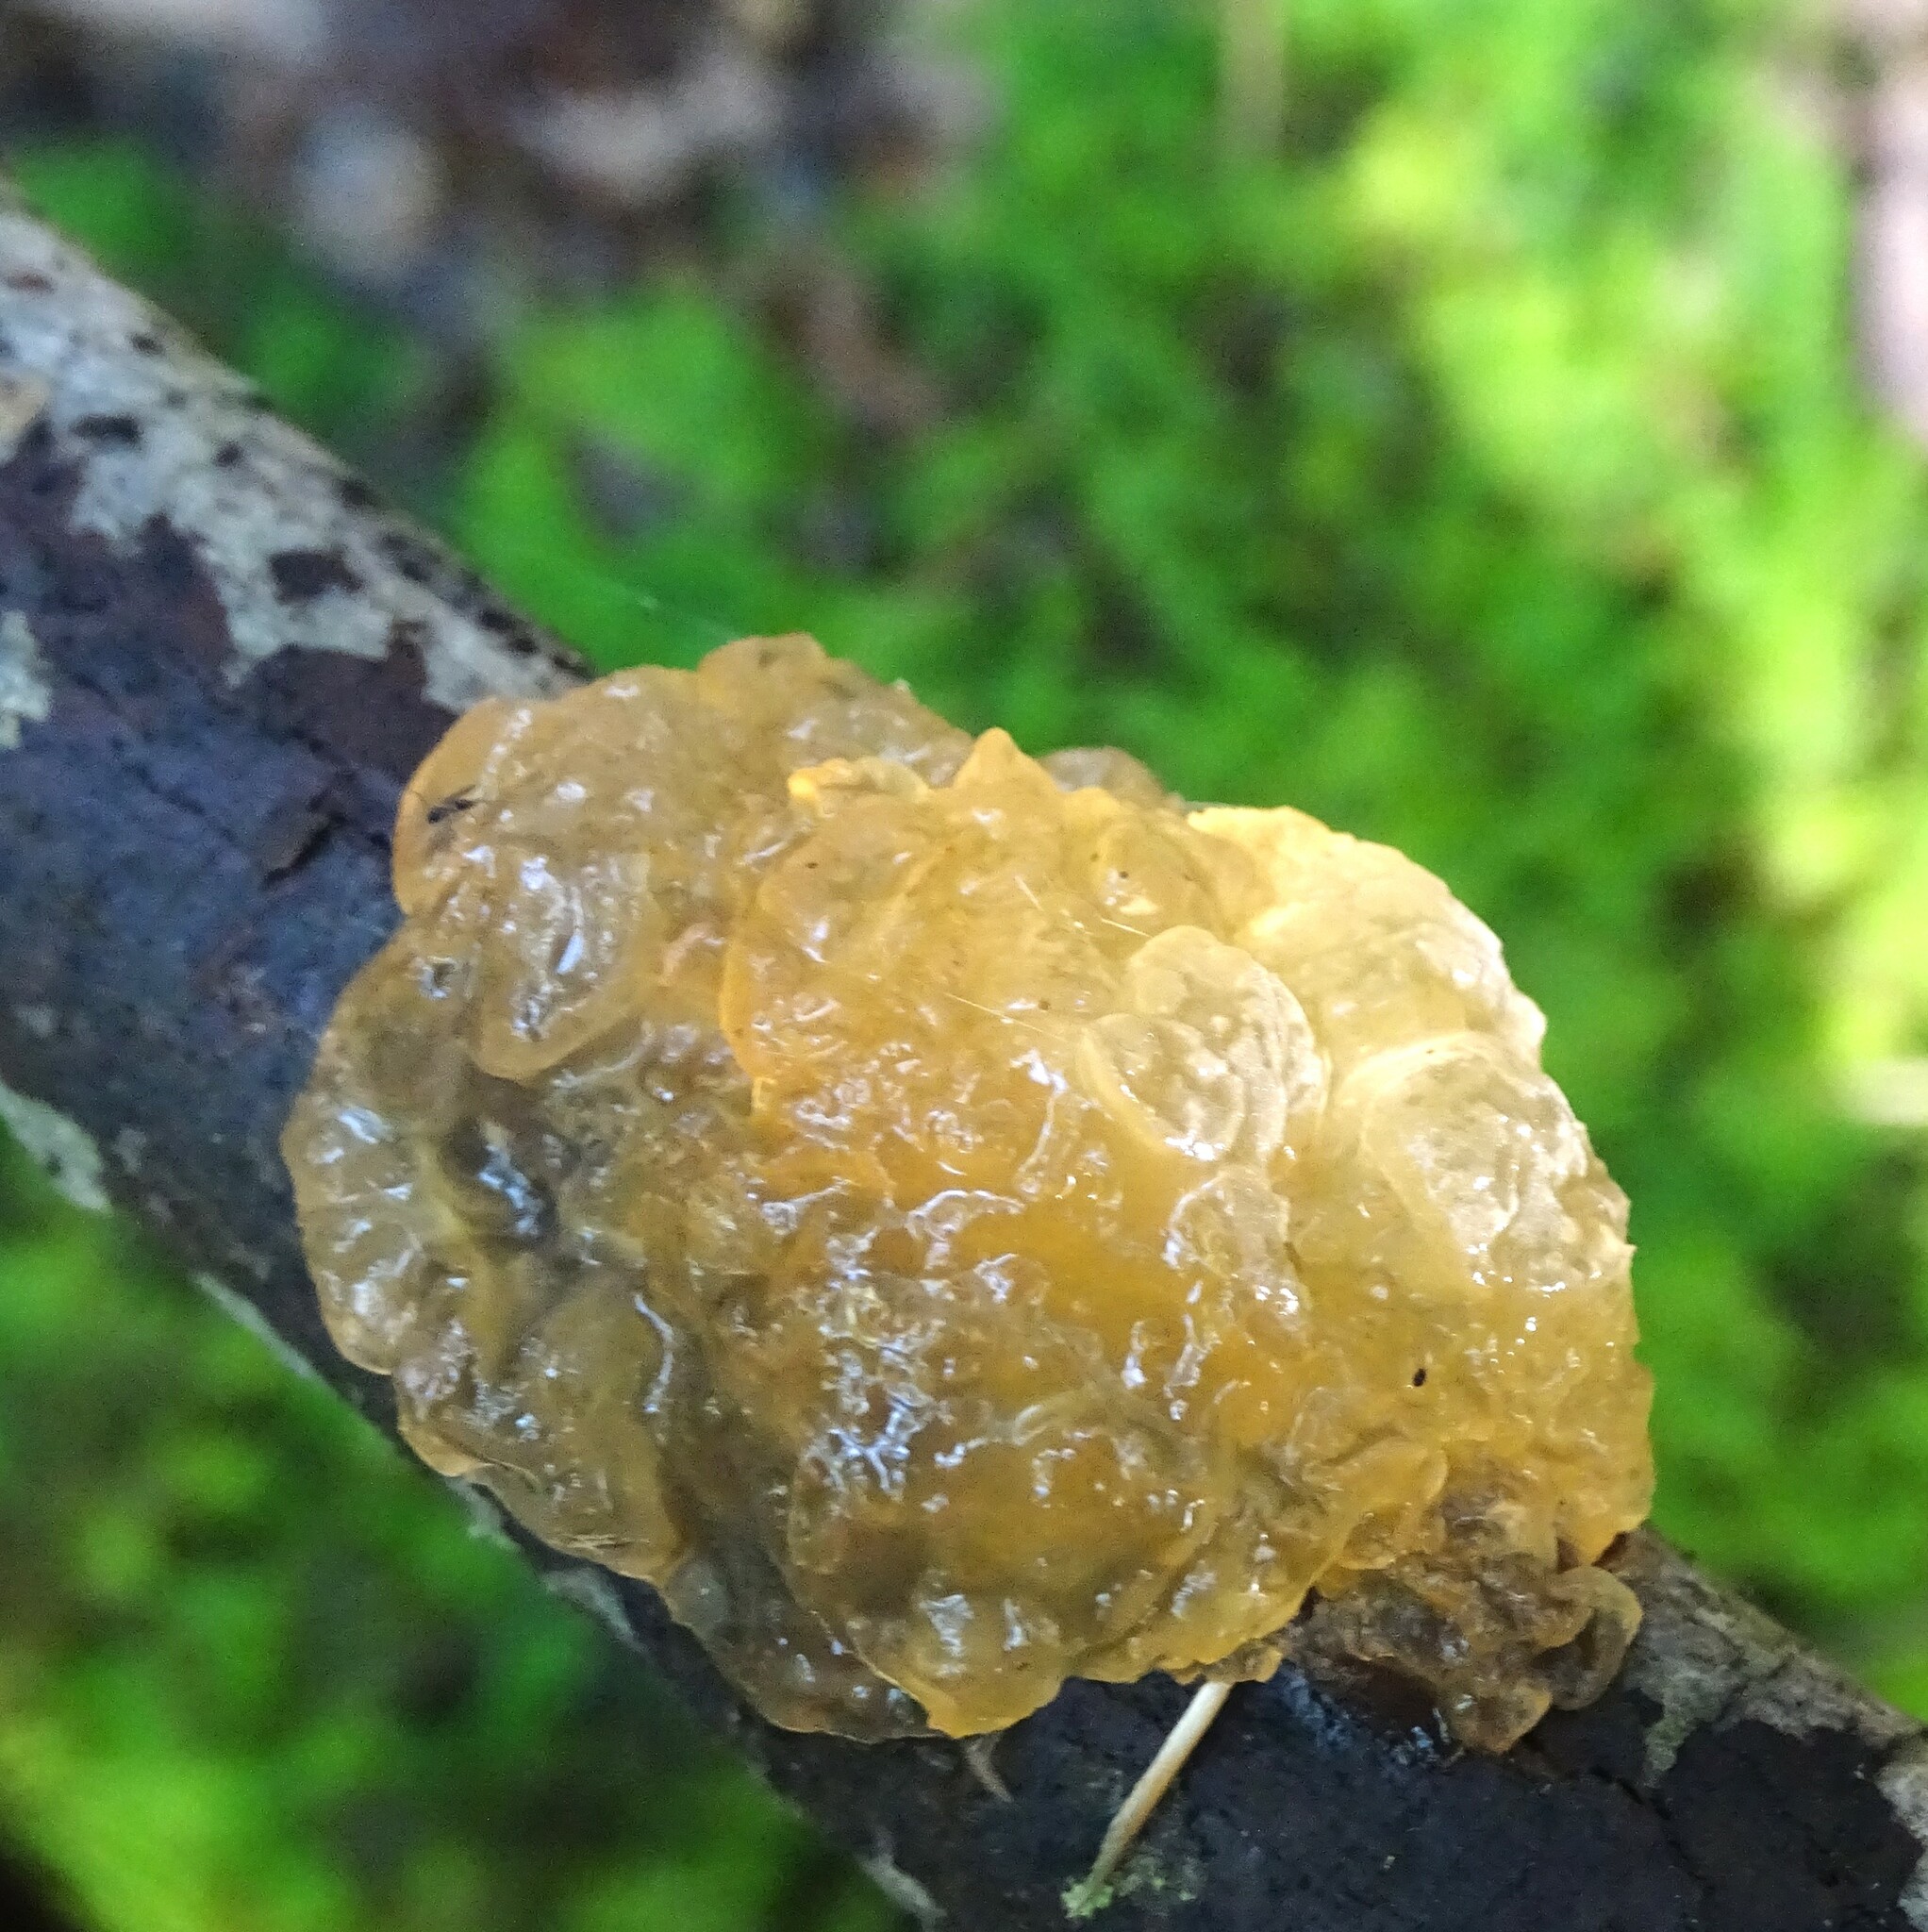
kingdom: Fungi
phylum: Basidiomycota
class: Agaricomycetes
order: Auriculariales
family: Hyaloriaceae
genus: Myxarium
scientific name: Myxarium nucleatum
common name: Crystal brain fungus
